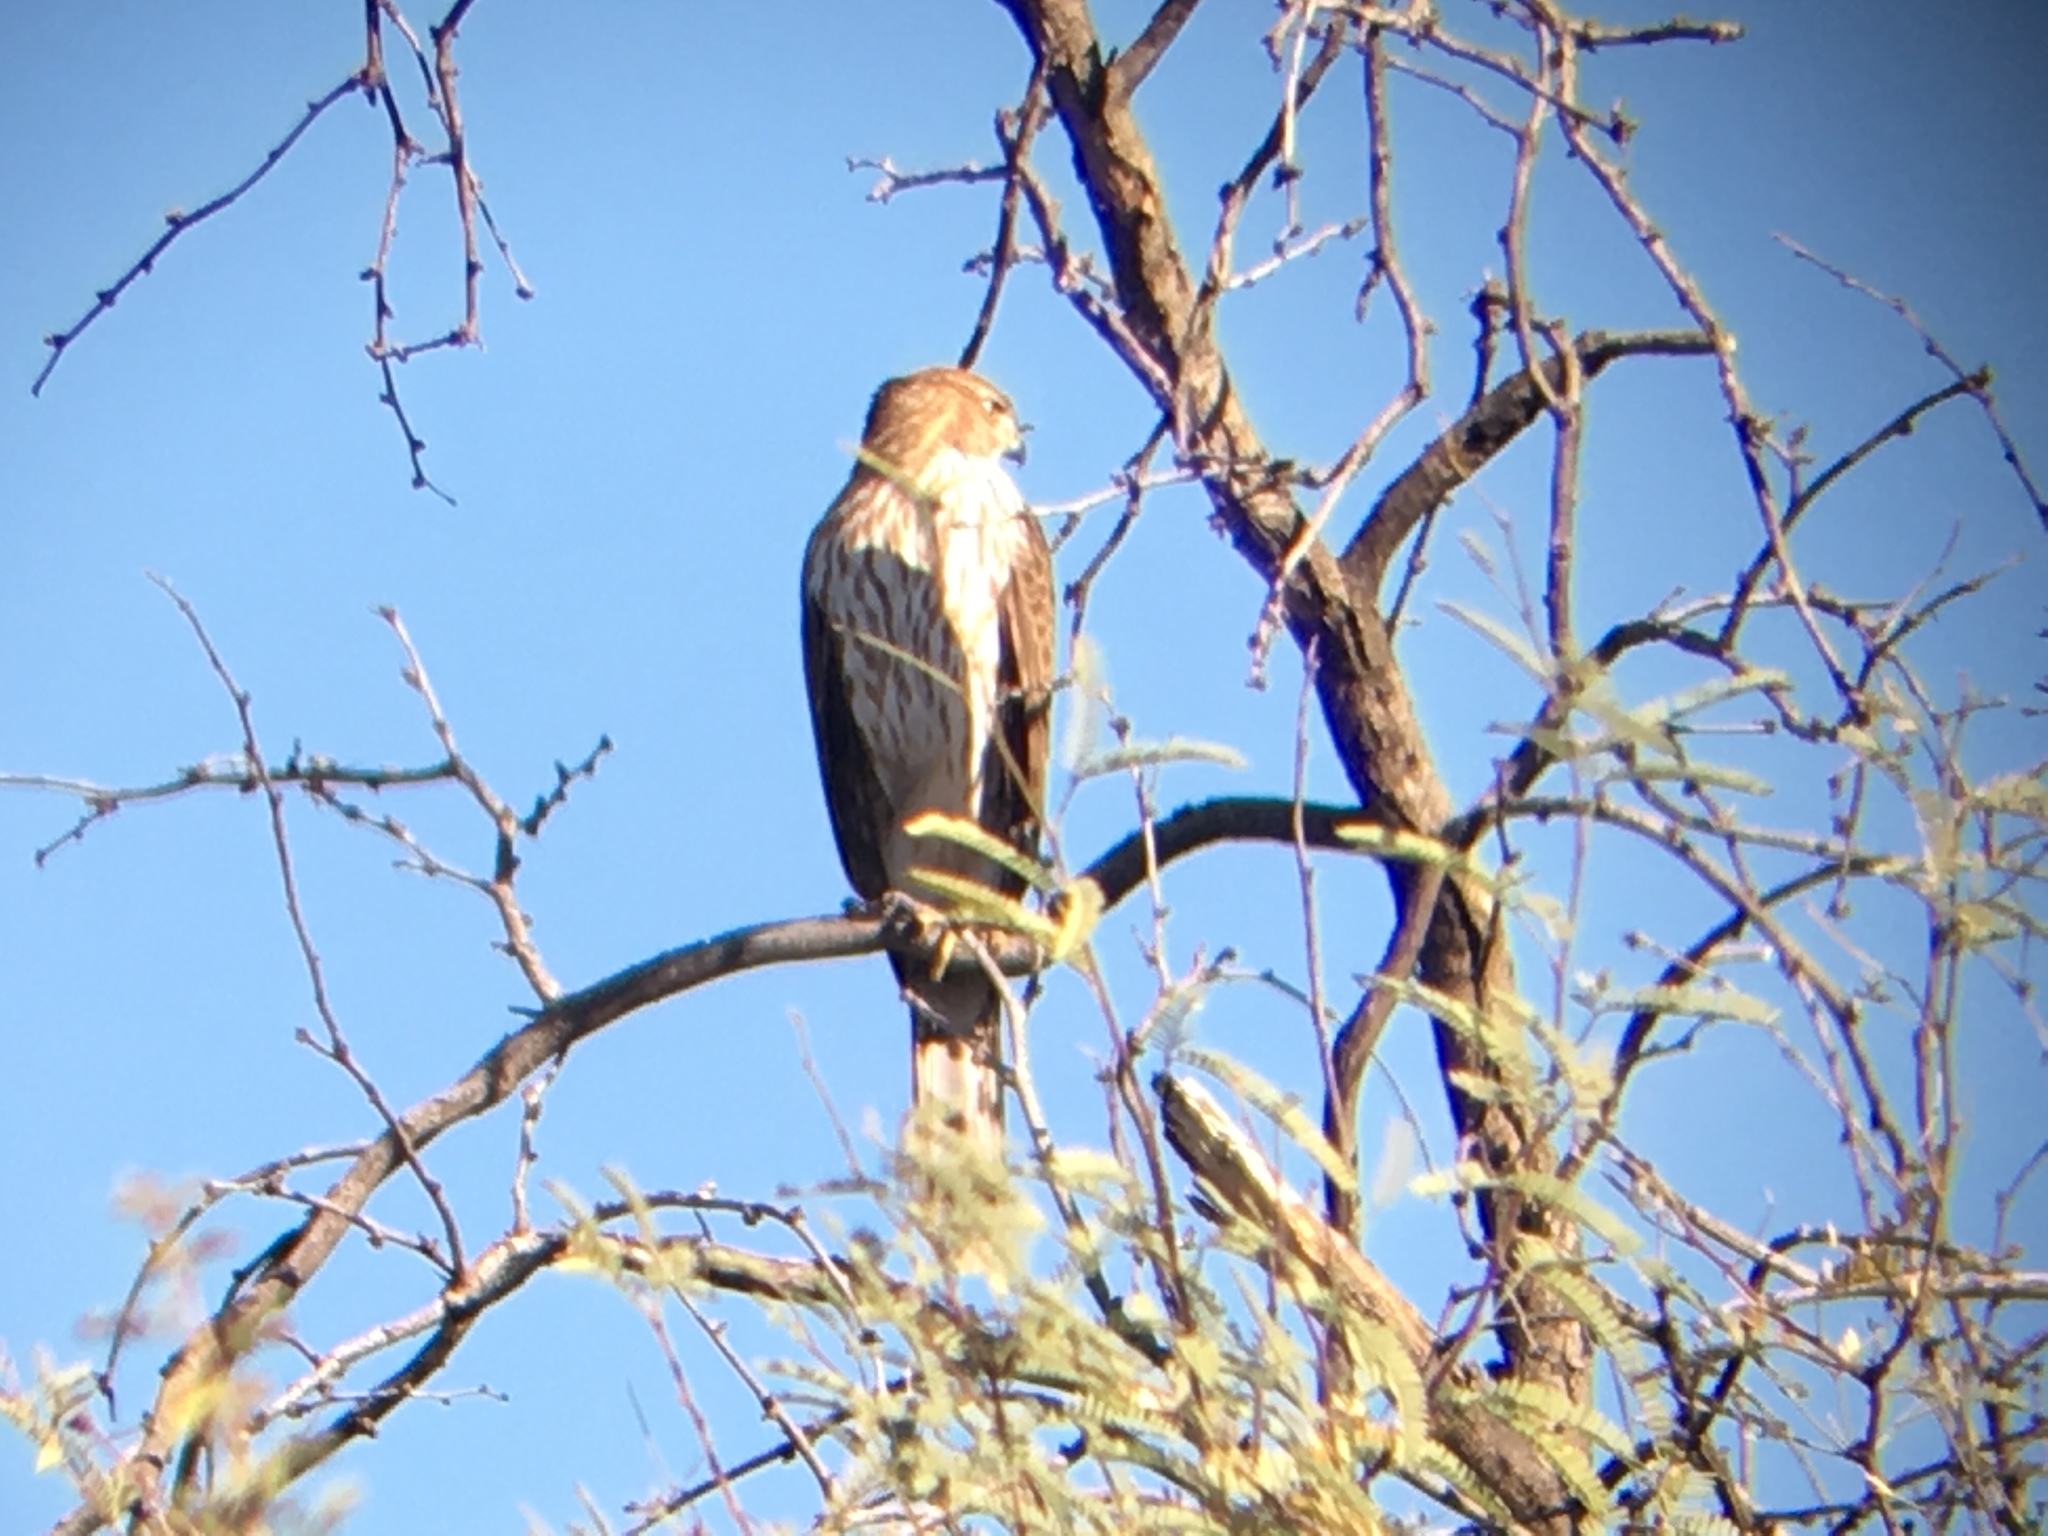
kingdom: Animalia
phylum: Chordata
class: Aves
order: Accipitriformes
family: Accipitridae
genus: Accipiter
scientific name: Accipiter cooperii
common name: Cooper's hawk
